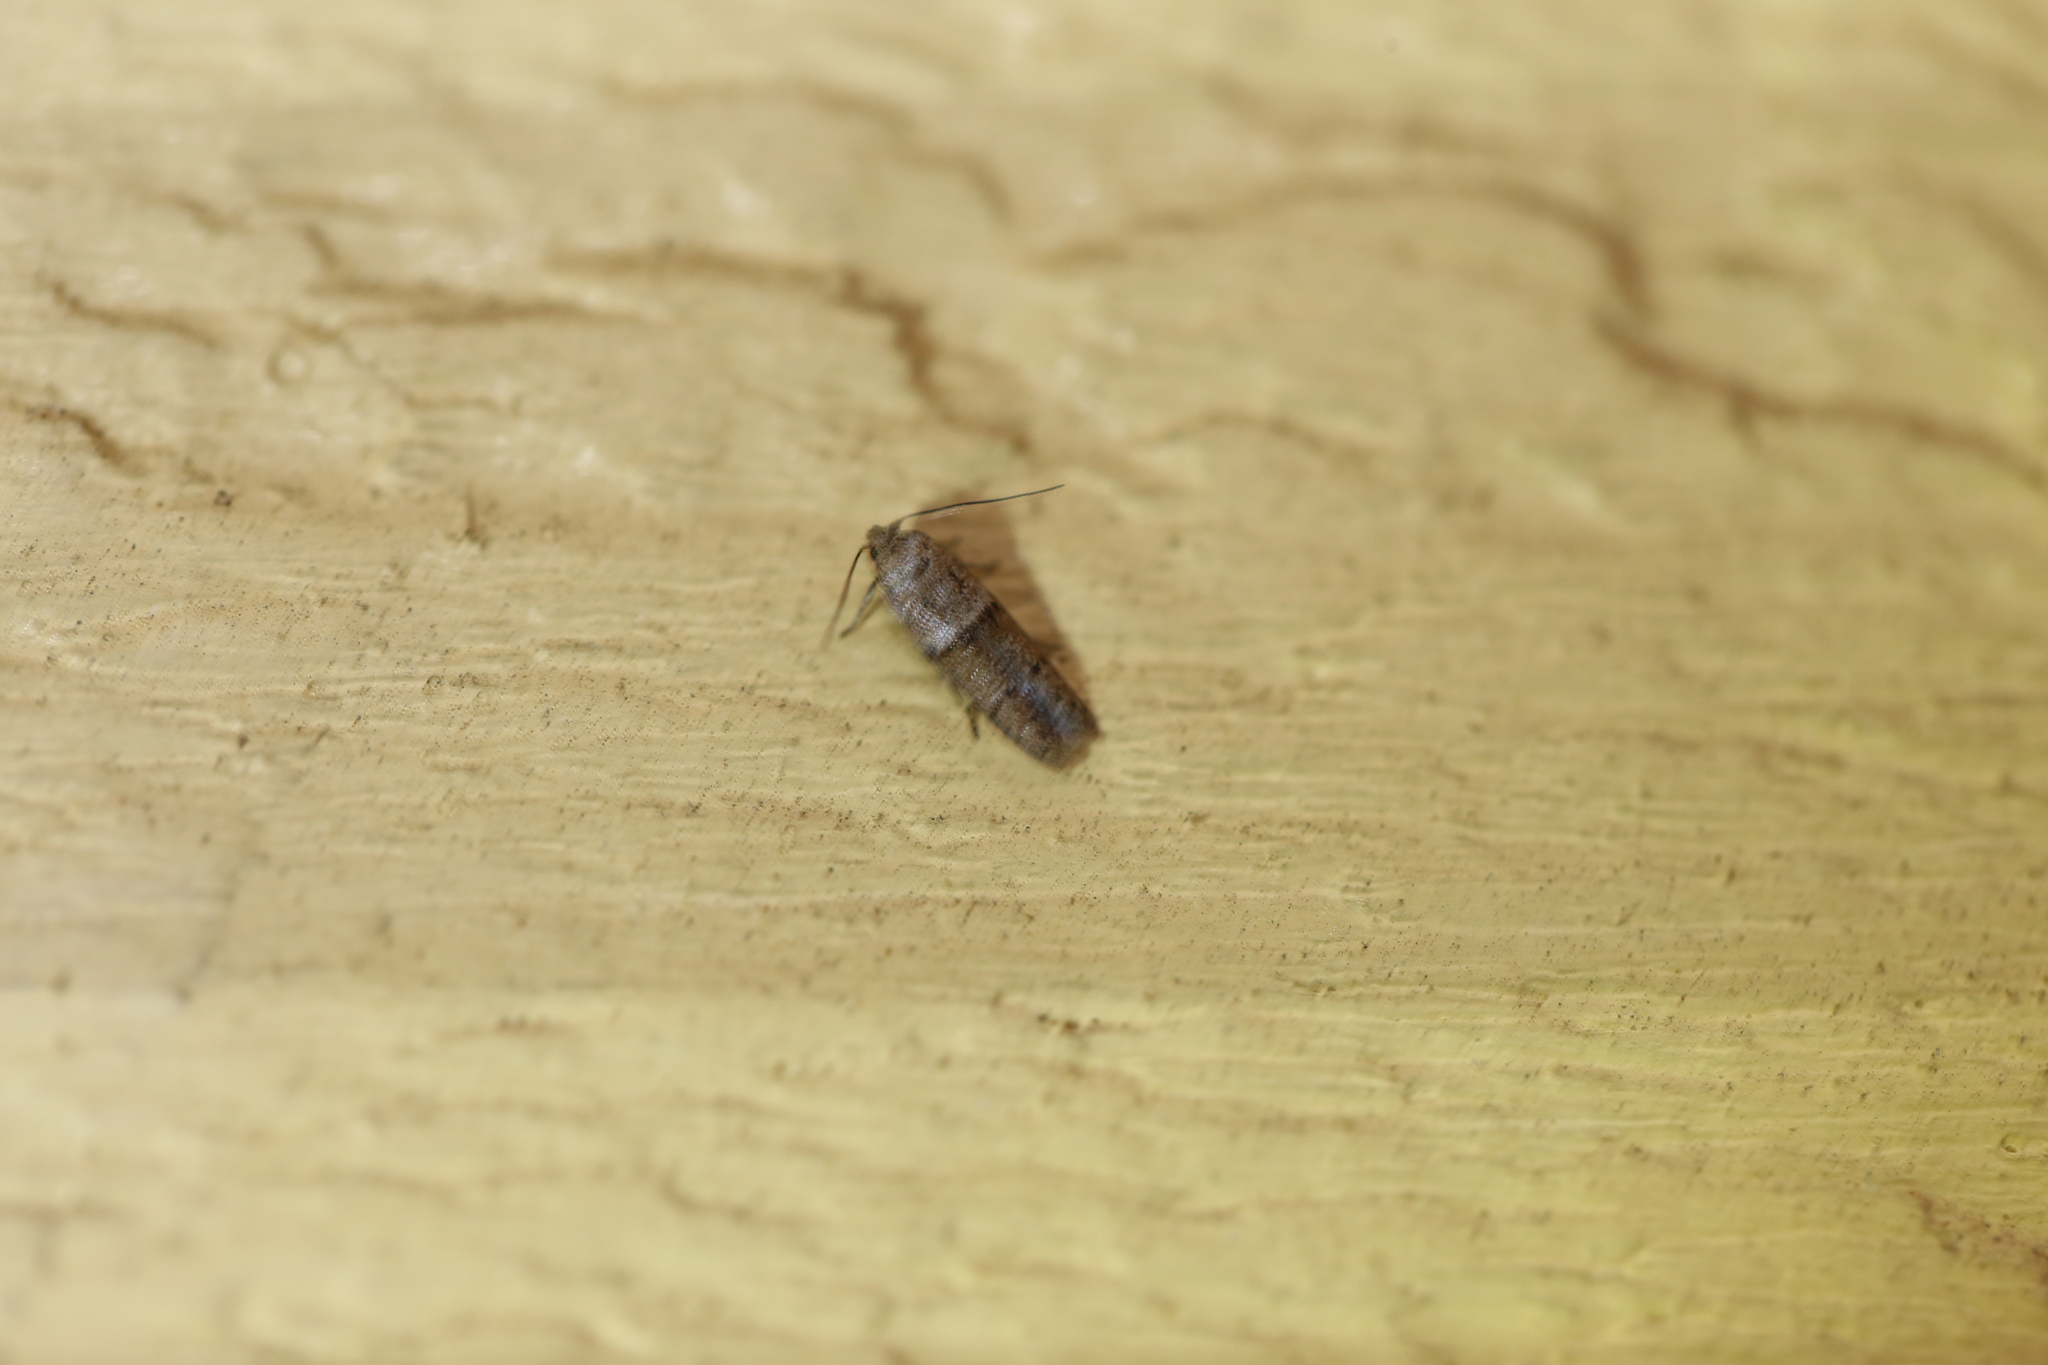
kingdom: Animalia
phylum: Arthropoda
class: Insecta
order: Lepidoptera
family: Pyralidae
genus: Plodia
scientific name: Plodia interpunctella
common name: Indian meal moth
